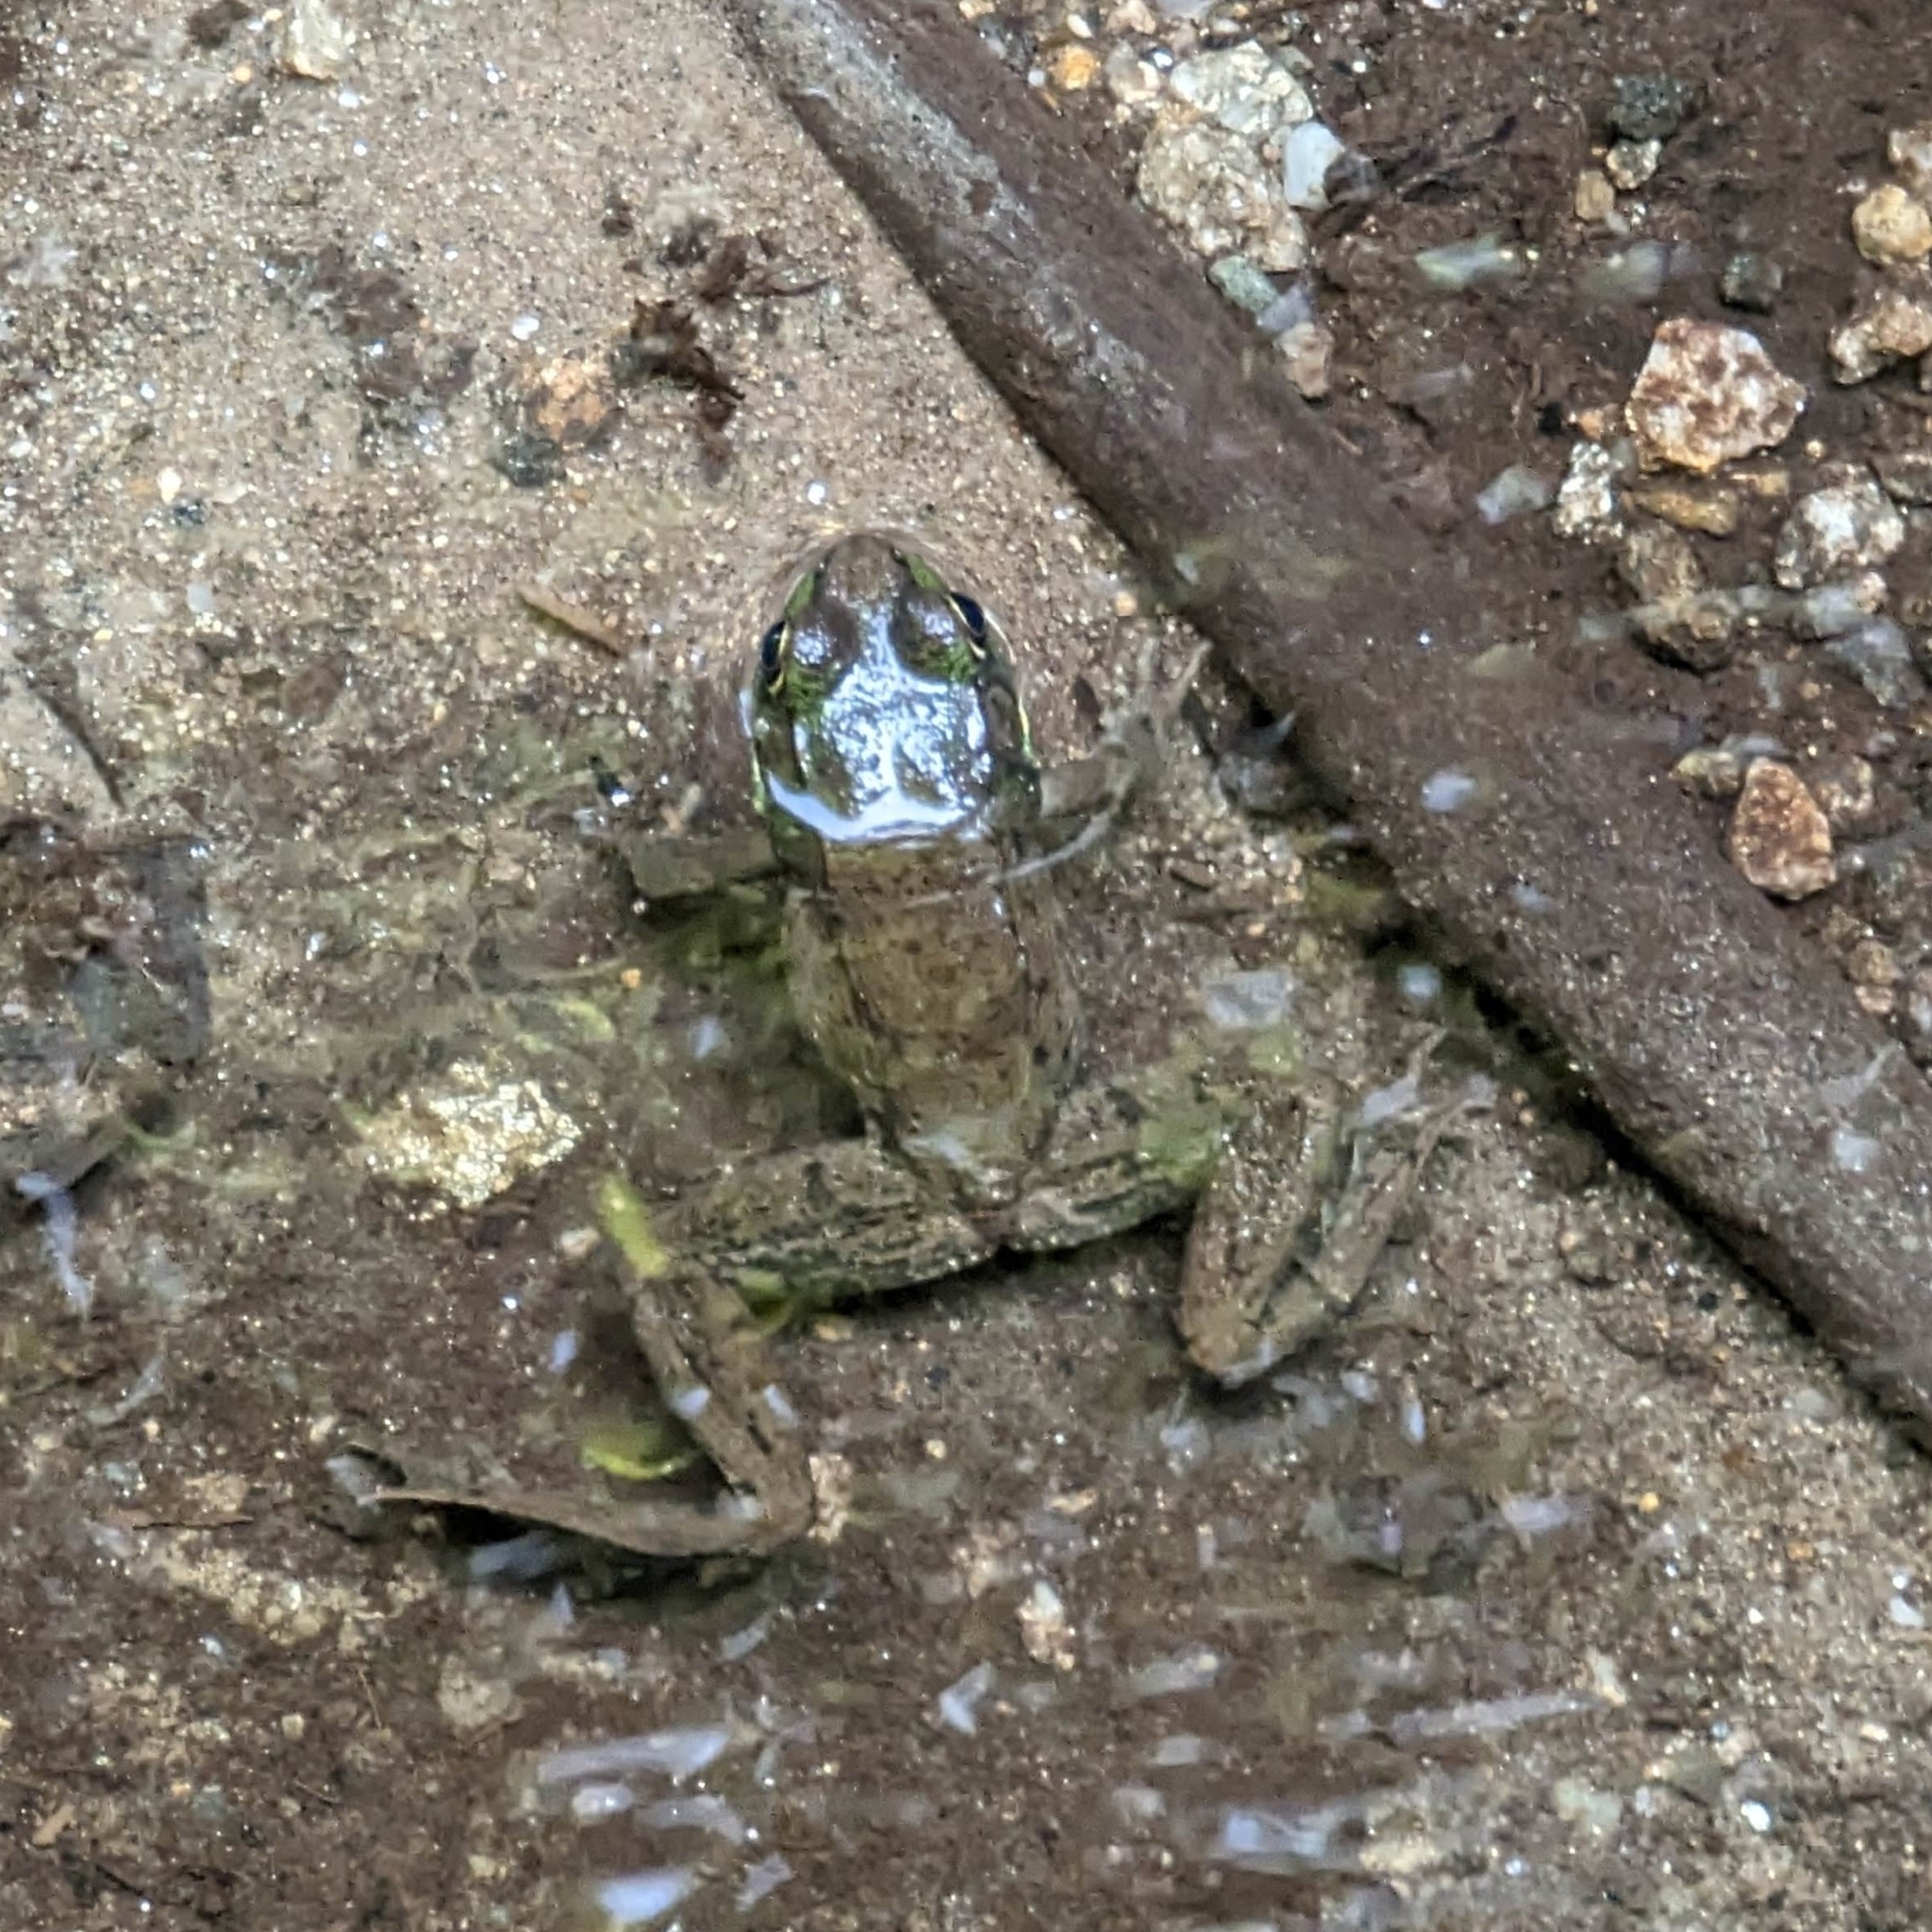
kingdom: Animalia
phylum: Chordata
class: Amphibia
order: Anura
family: Ranidae
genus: Lithobates
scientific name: Lithobates clamitans
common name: Green frog
